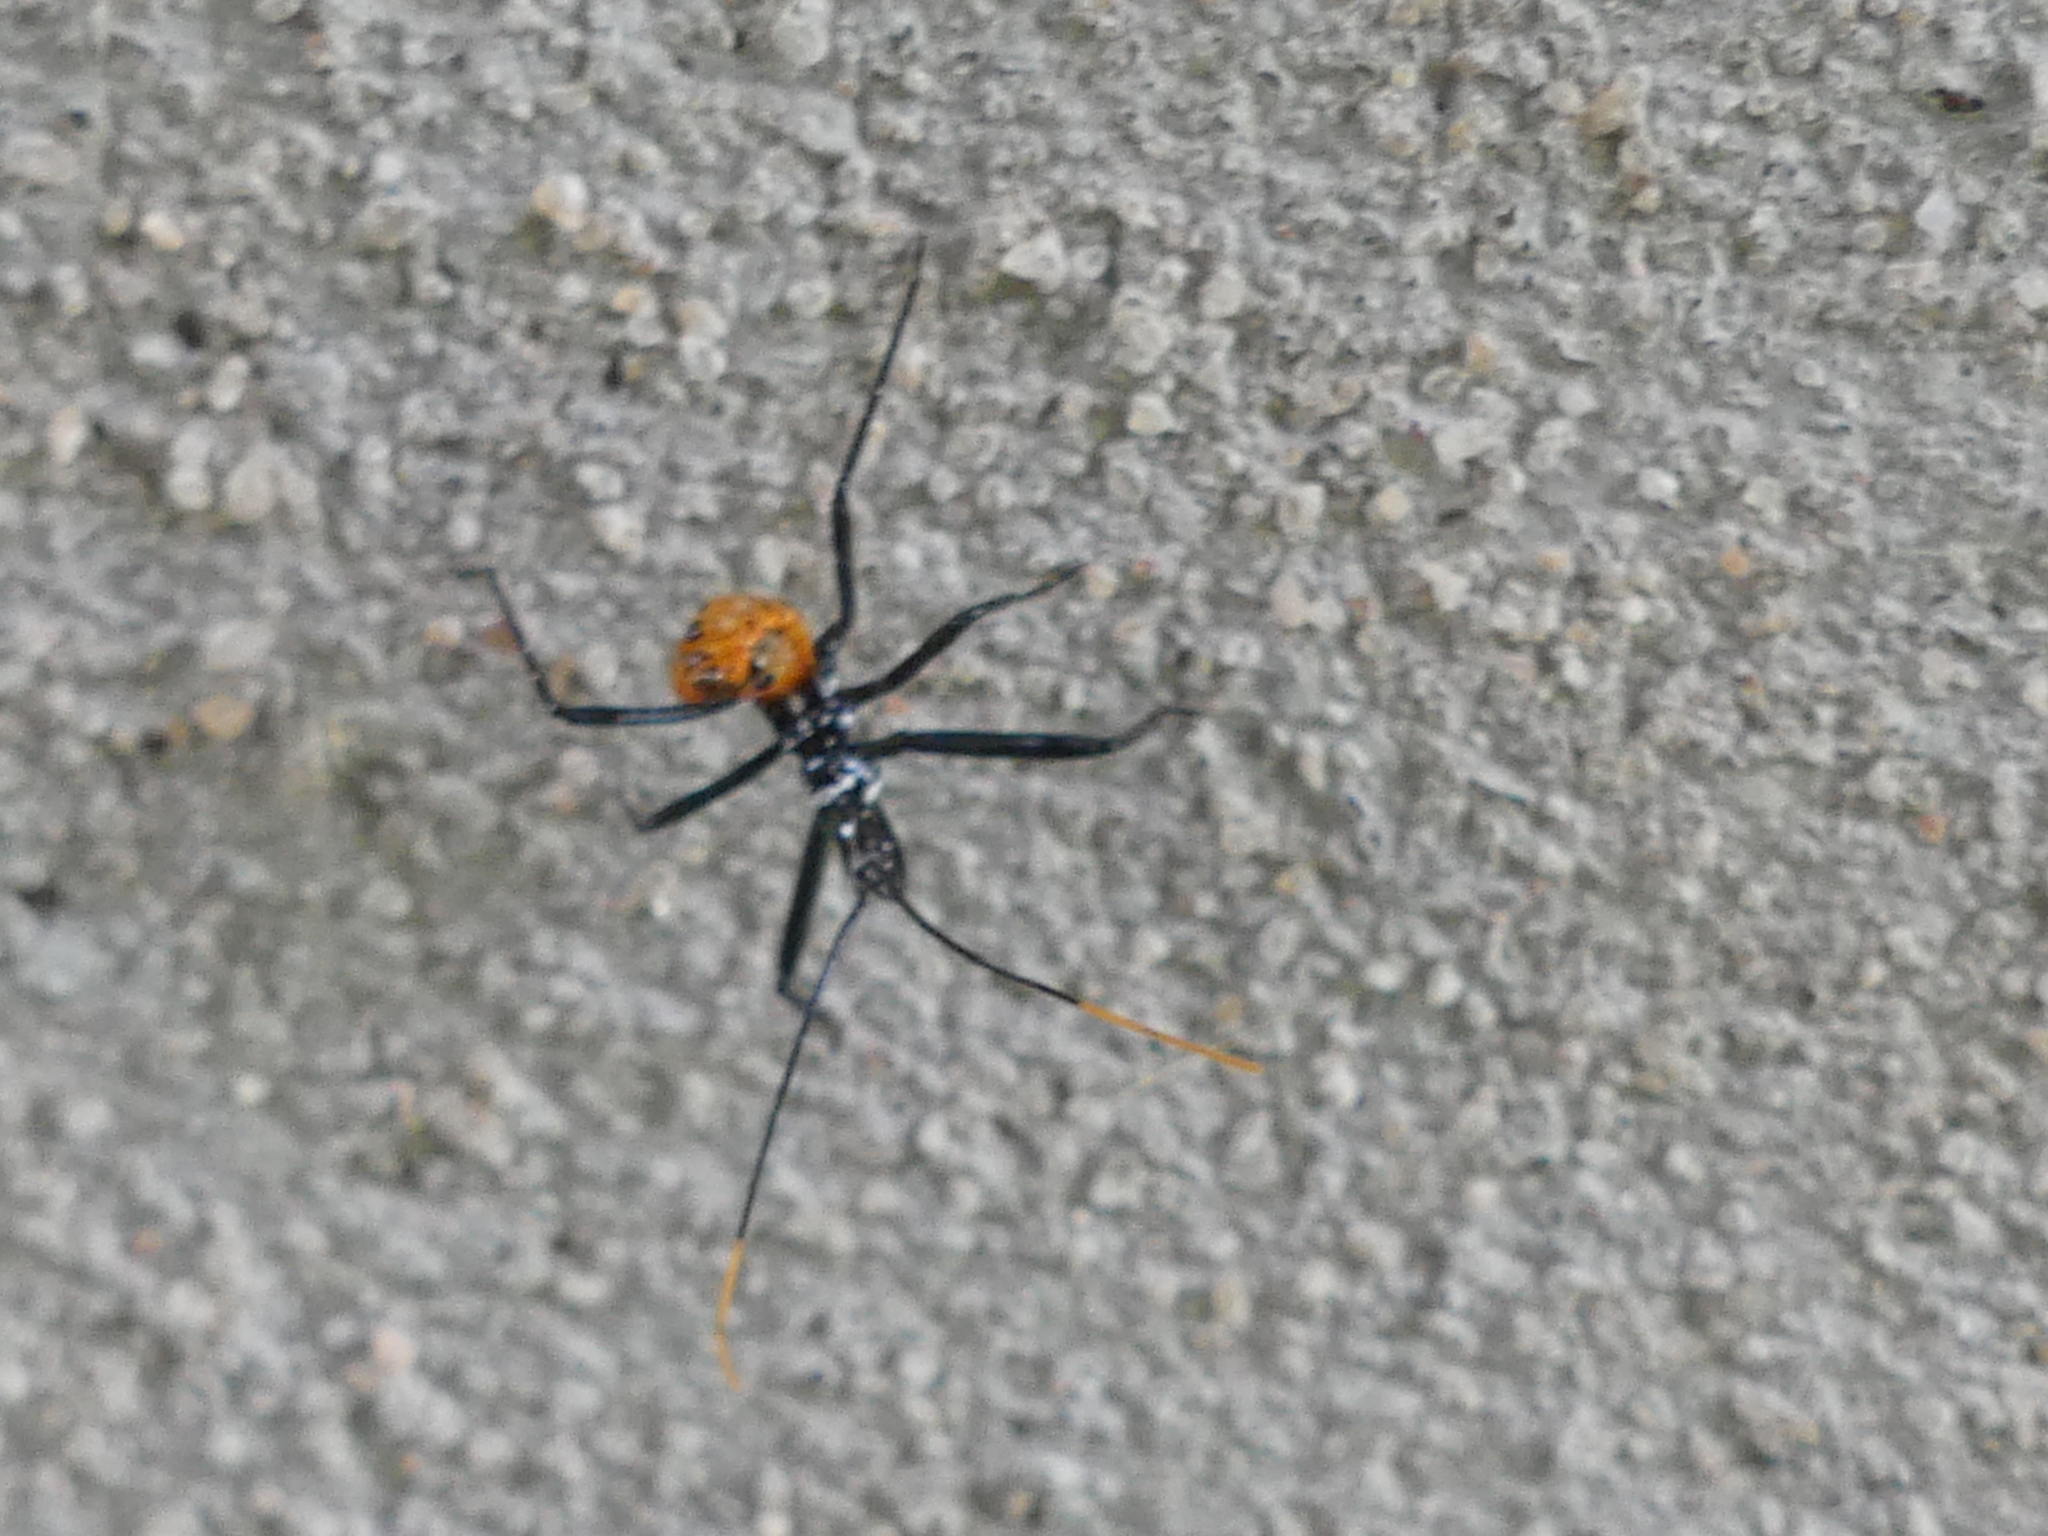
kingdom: Animalia
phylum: Arthropoda
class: Insecta
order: Hemiptera
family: Reduviidae
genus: Arilus
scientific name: Arilus cristatus
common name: North american wheel bug
